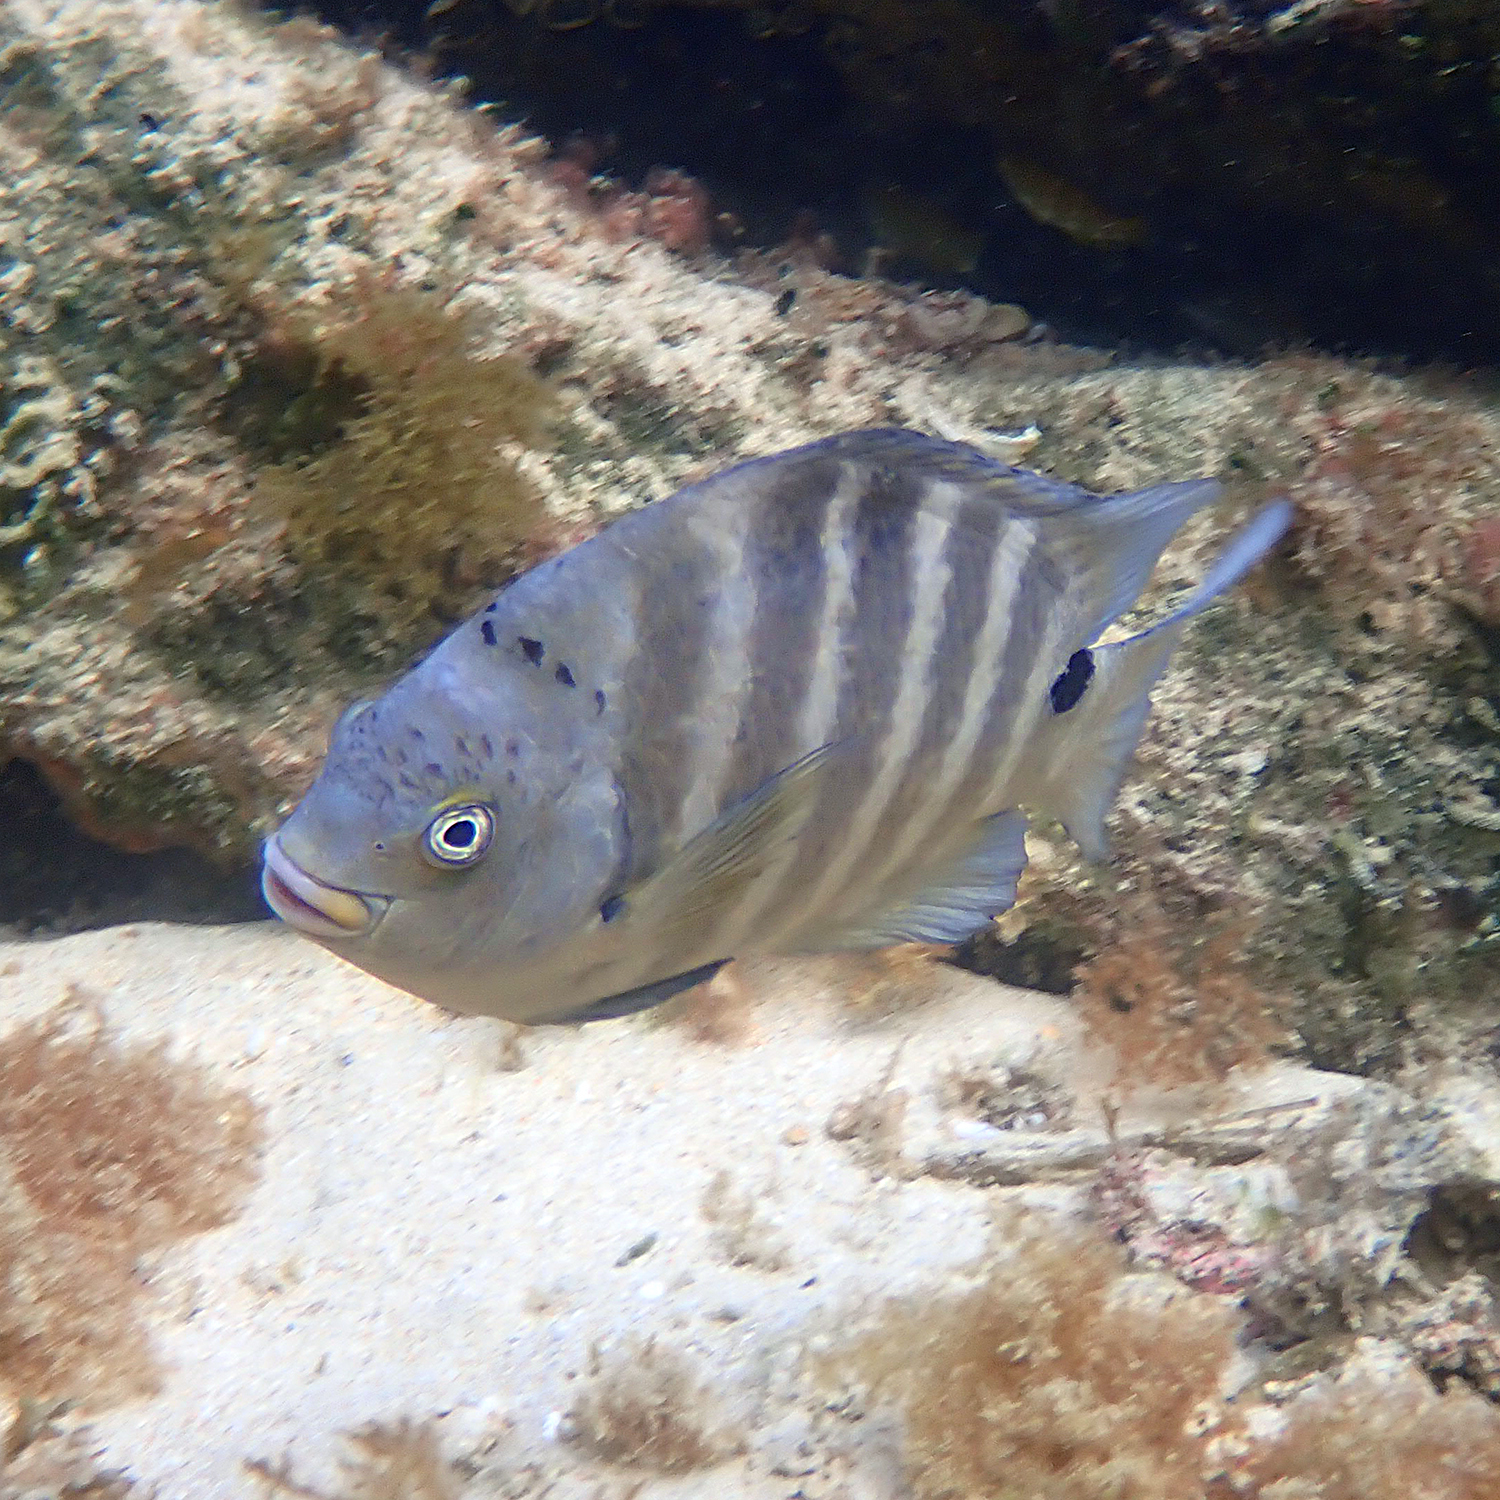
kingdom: Animalia
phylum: Chordata
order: Perciformes
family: Pomacentridae
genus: Abudefduf
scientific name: Abudefduf sordidus
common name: Blackspot sergeant
